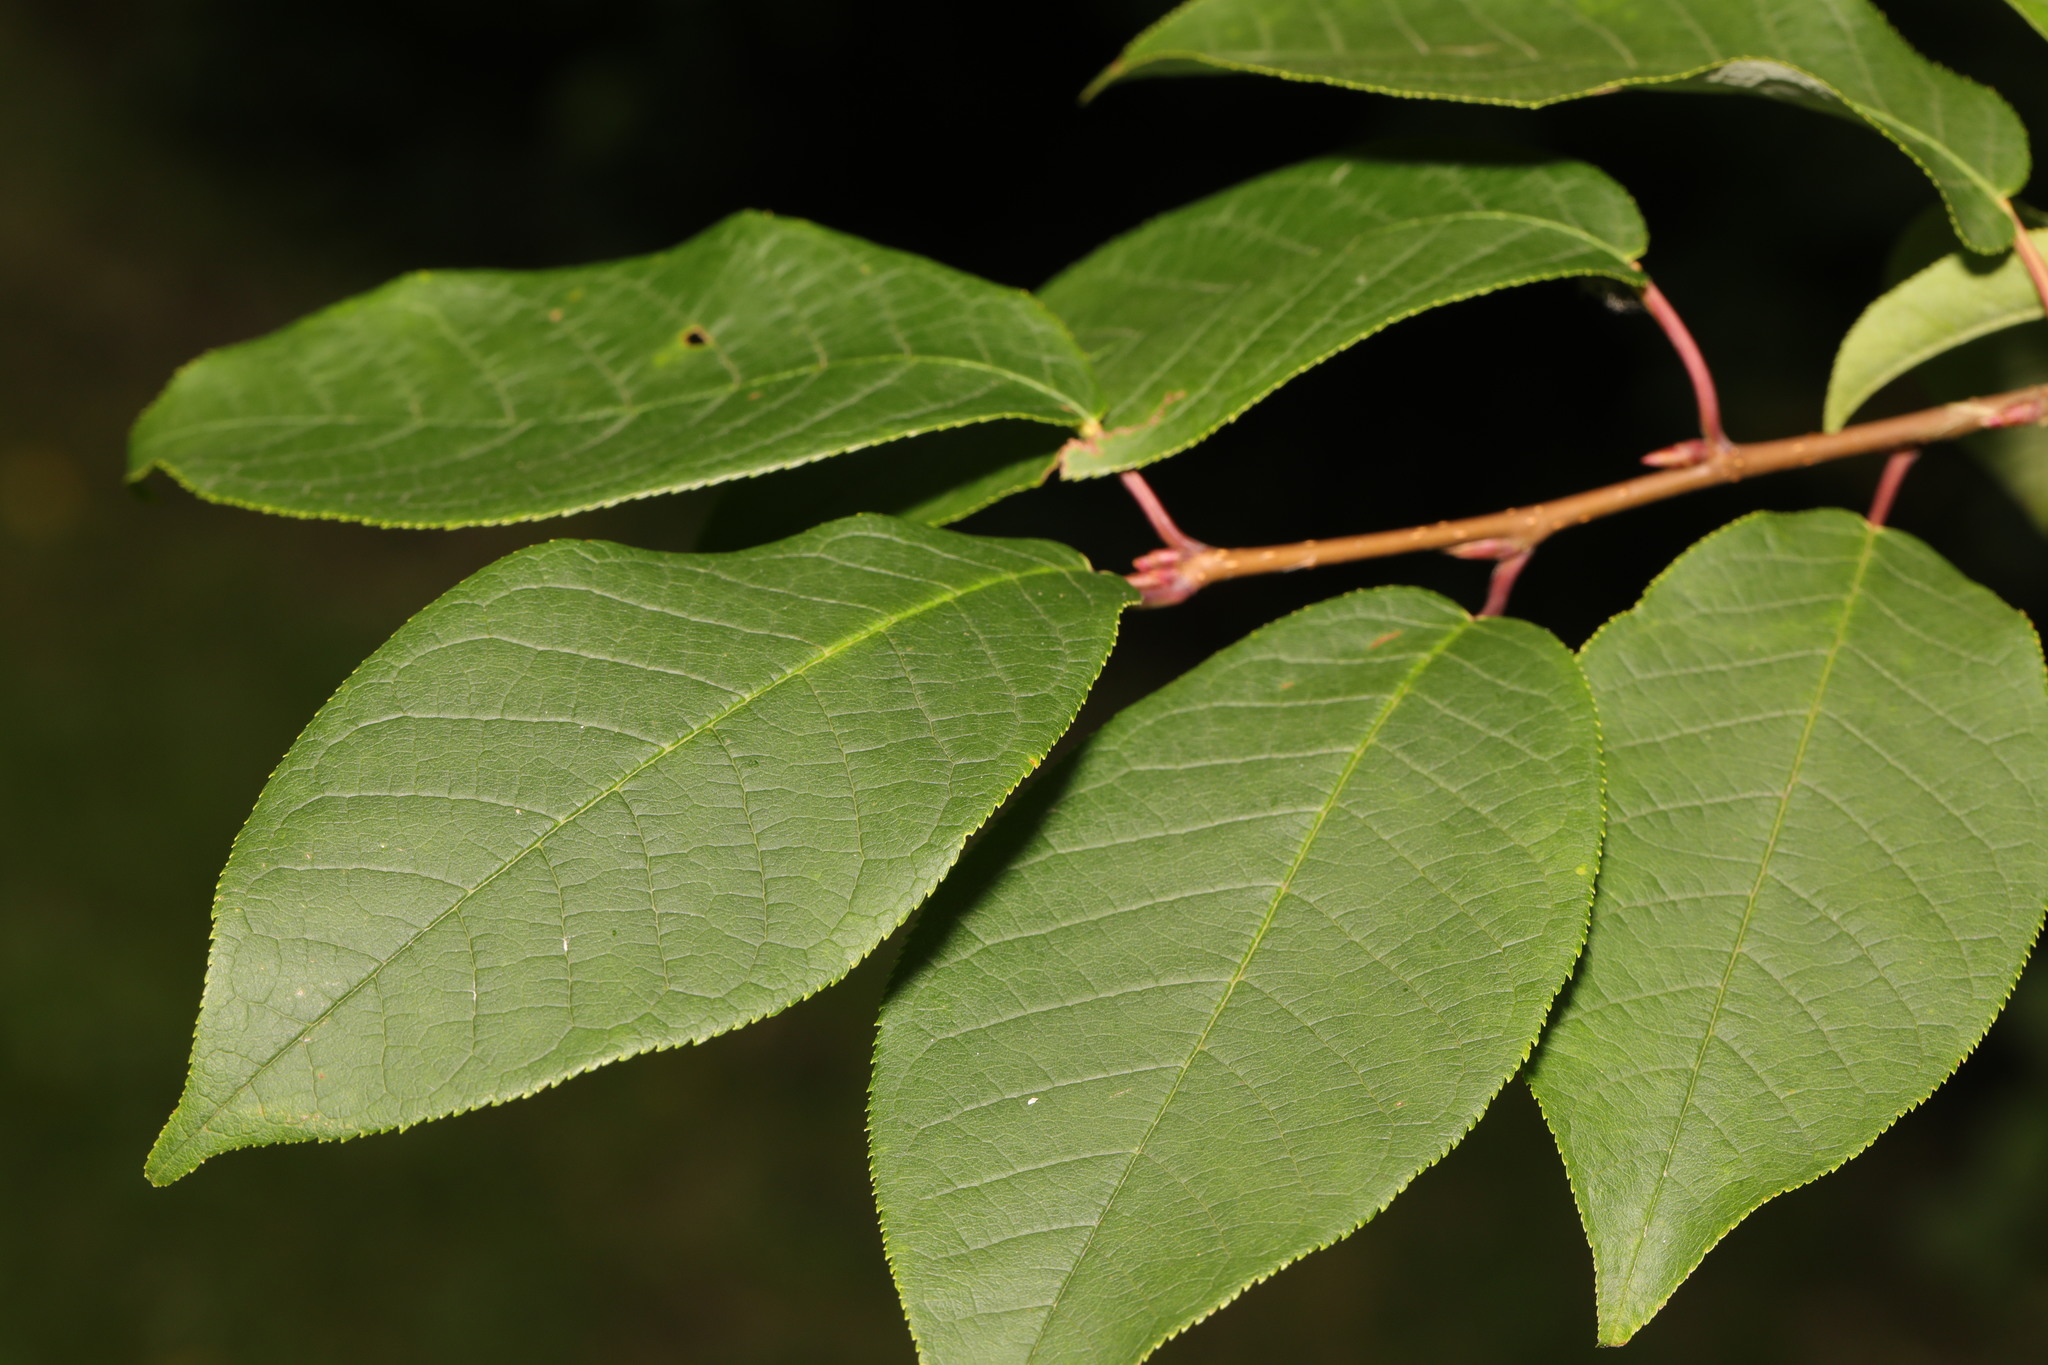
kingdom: Plantae
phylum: Tracheophyta
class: Magnoliopsida
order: Rosales
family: Rosaceae
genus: Prunus
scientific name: Prunus padus
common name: Bird cherry
